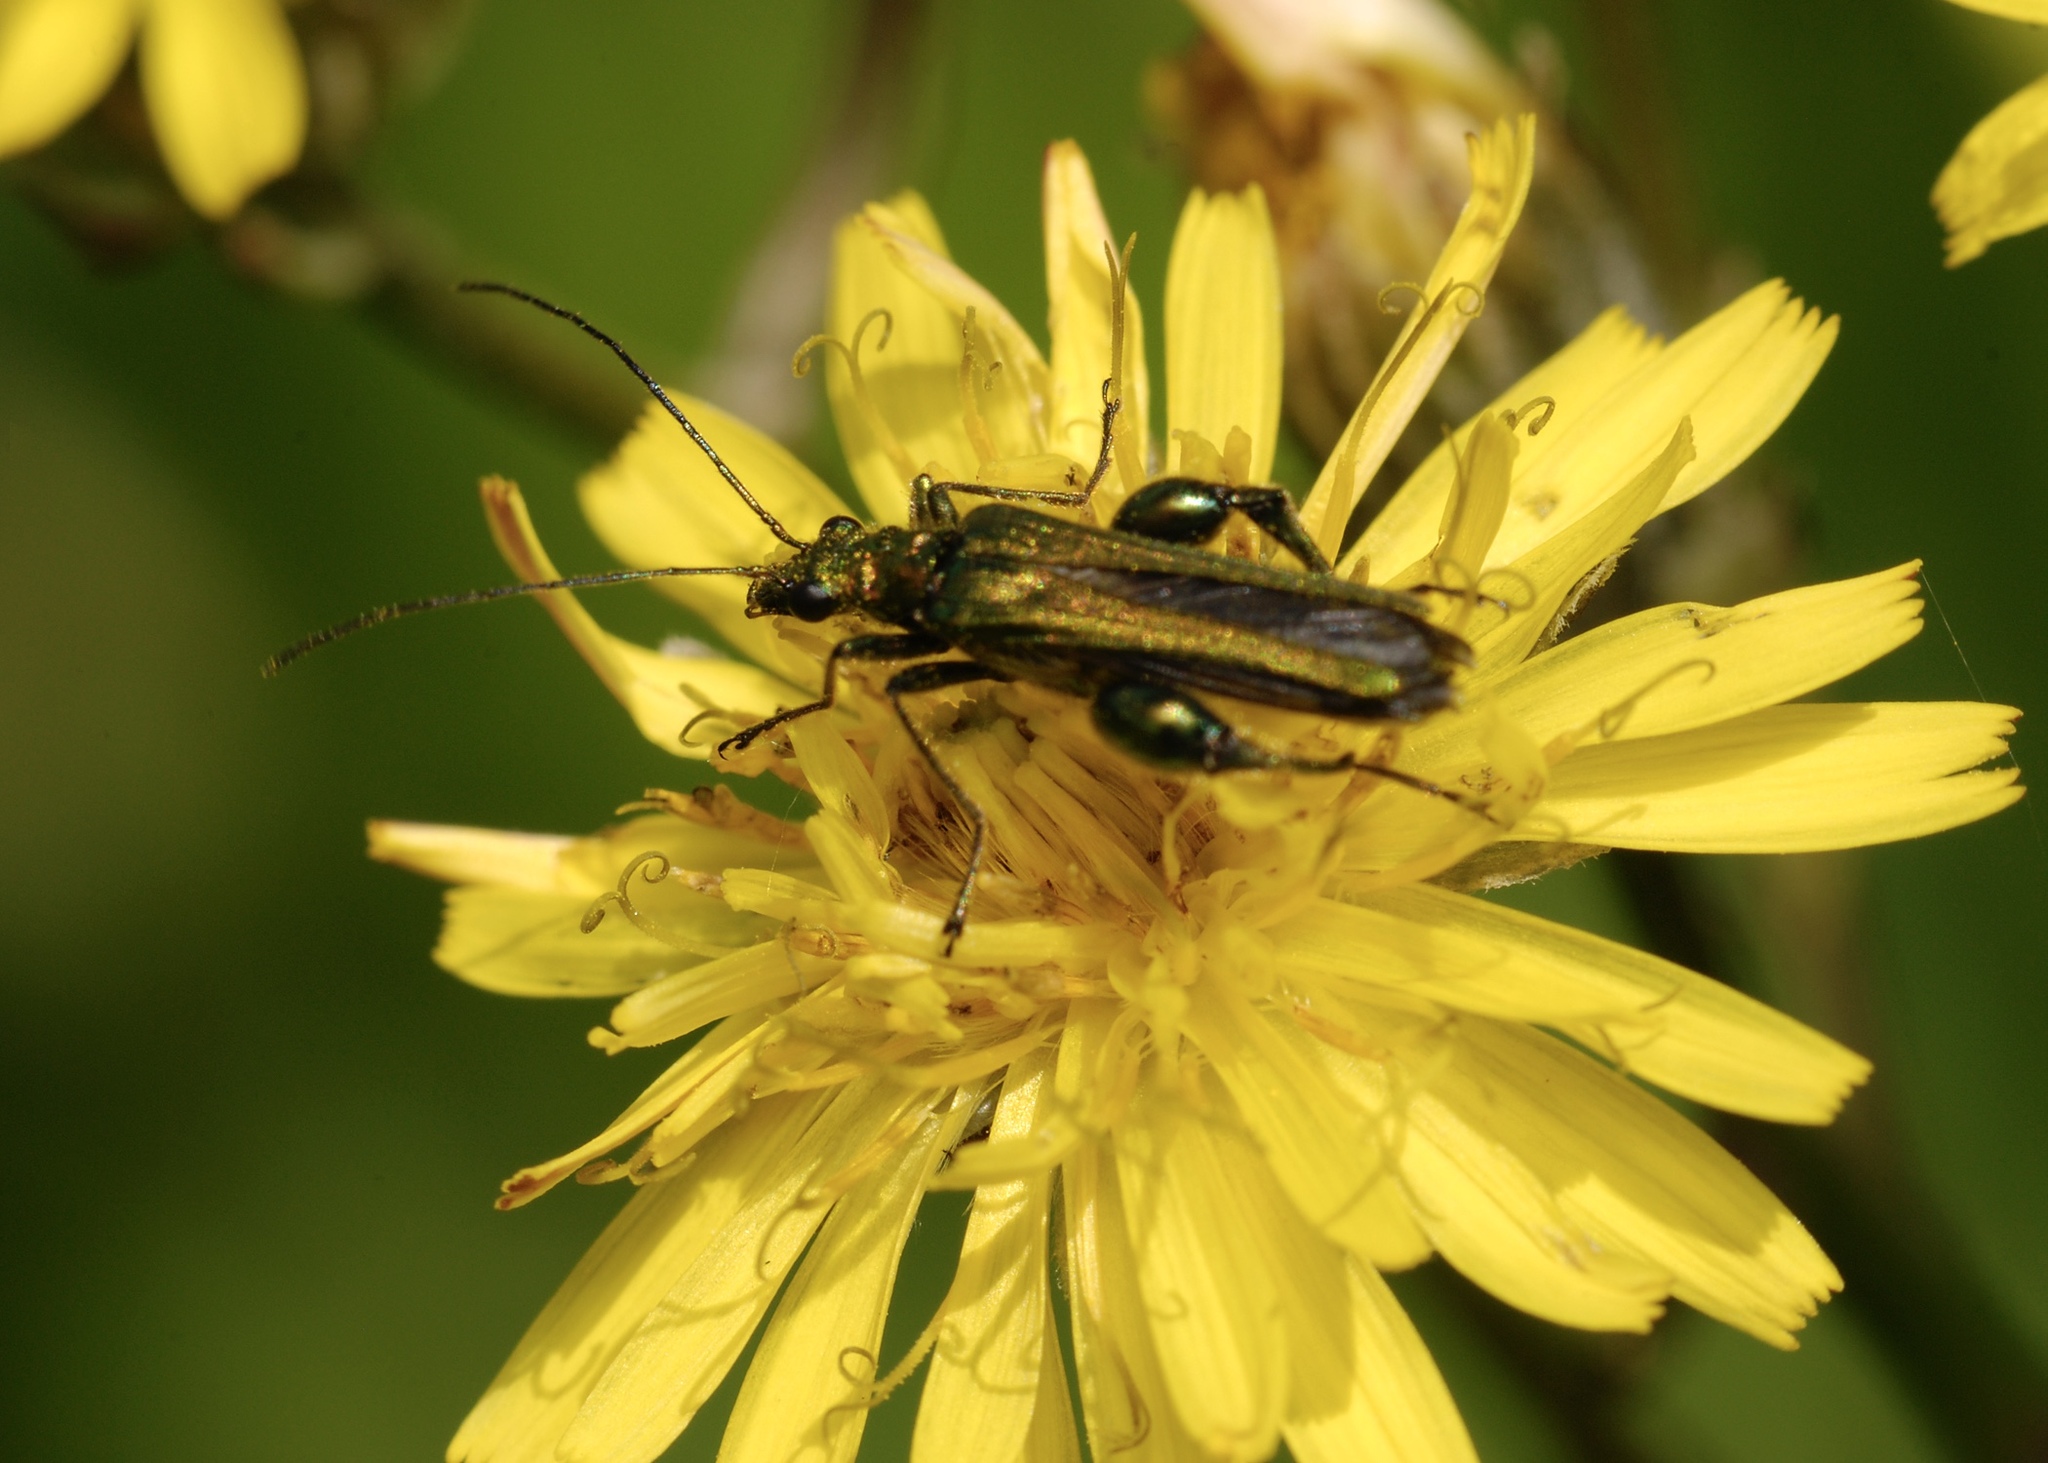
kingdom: Animalia
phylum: Arthropoda
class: Insecta
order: Coleoptera
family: Oedemeridae
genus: Oedemera
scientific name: Oedemera nobilis
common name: Swollen-thighed beetle
